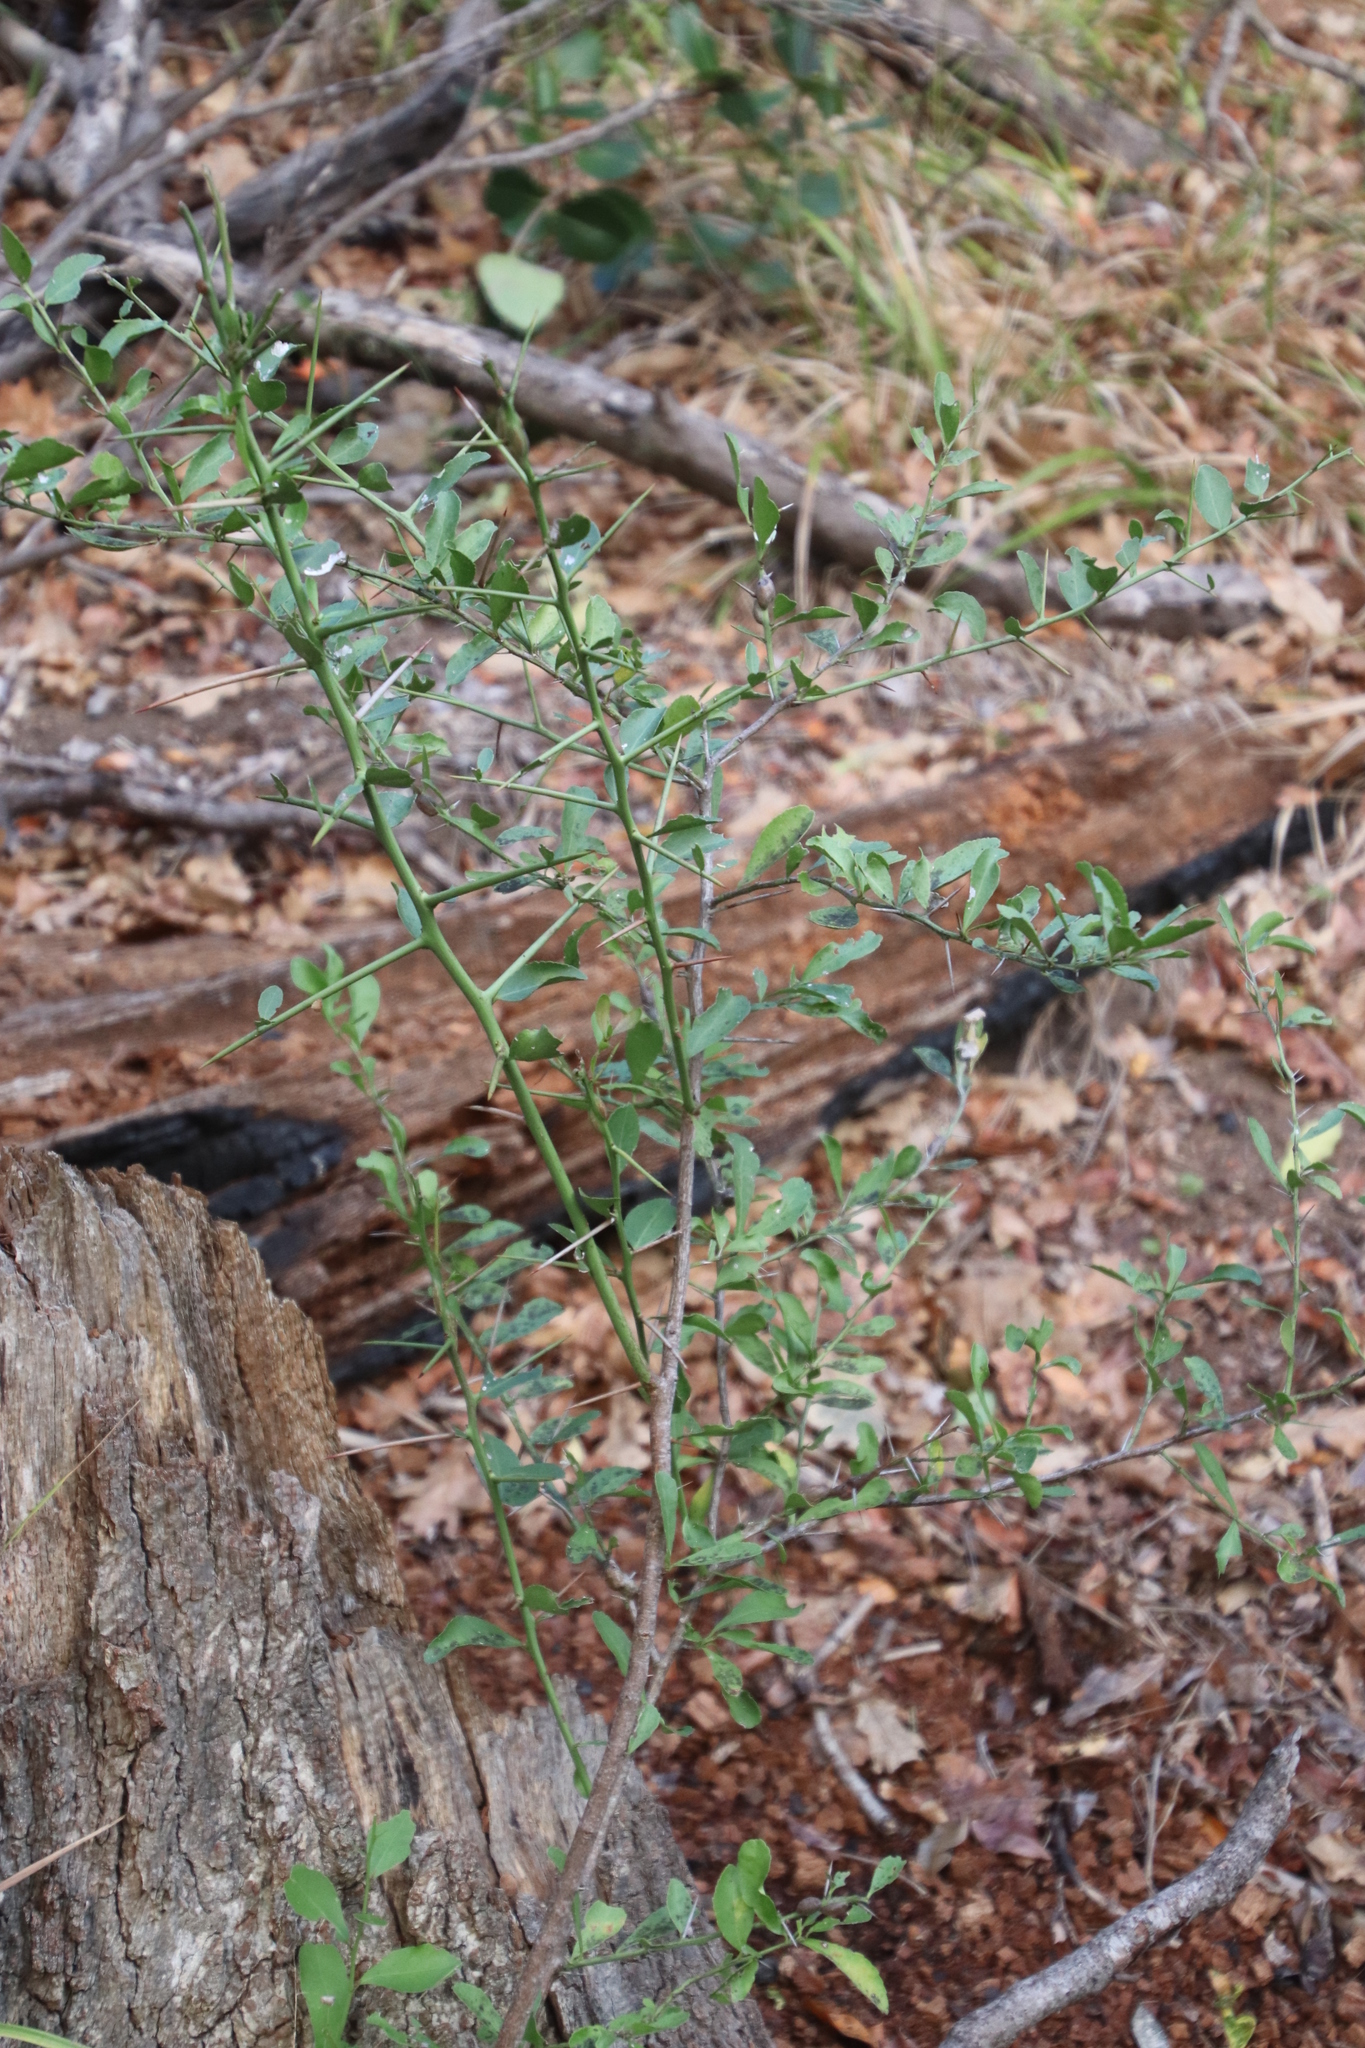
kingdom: Plantae
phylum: Tracheophyta
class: Magnoliopsida
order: Celastrales
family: Celastraceae
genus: Gymnosporia
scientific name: Gymnosporia buxifolia
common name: Common spike-thorn
